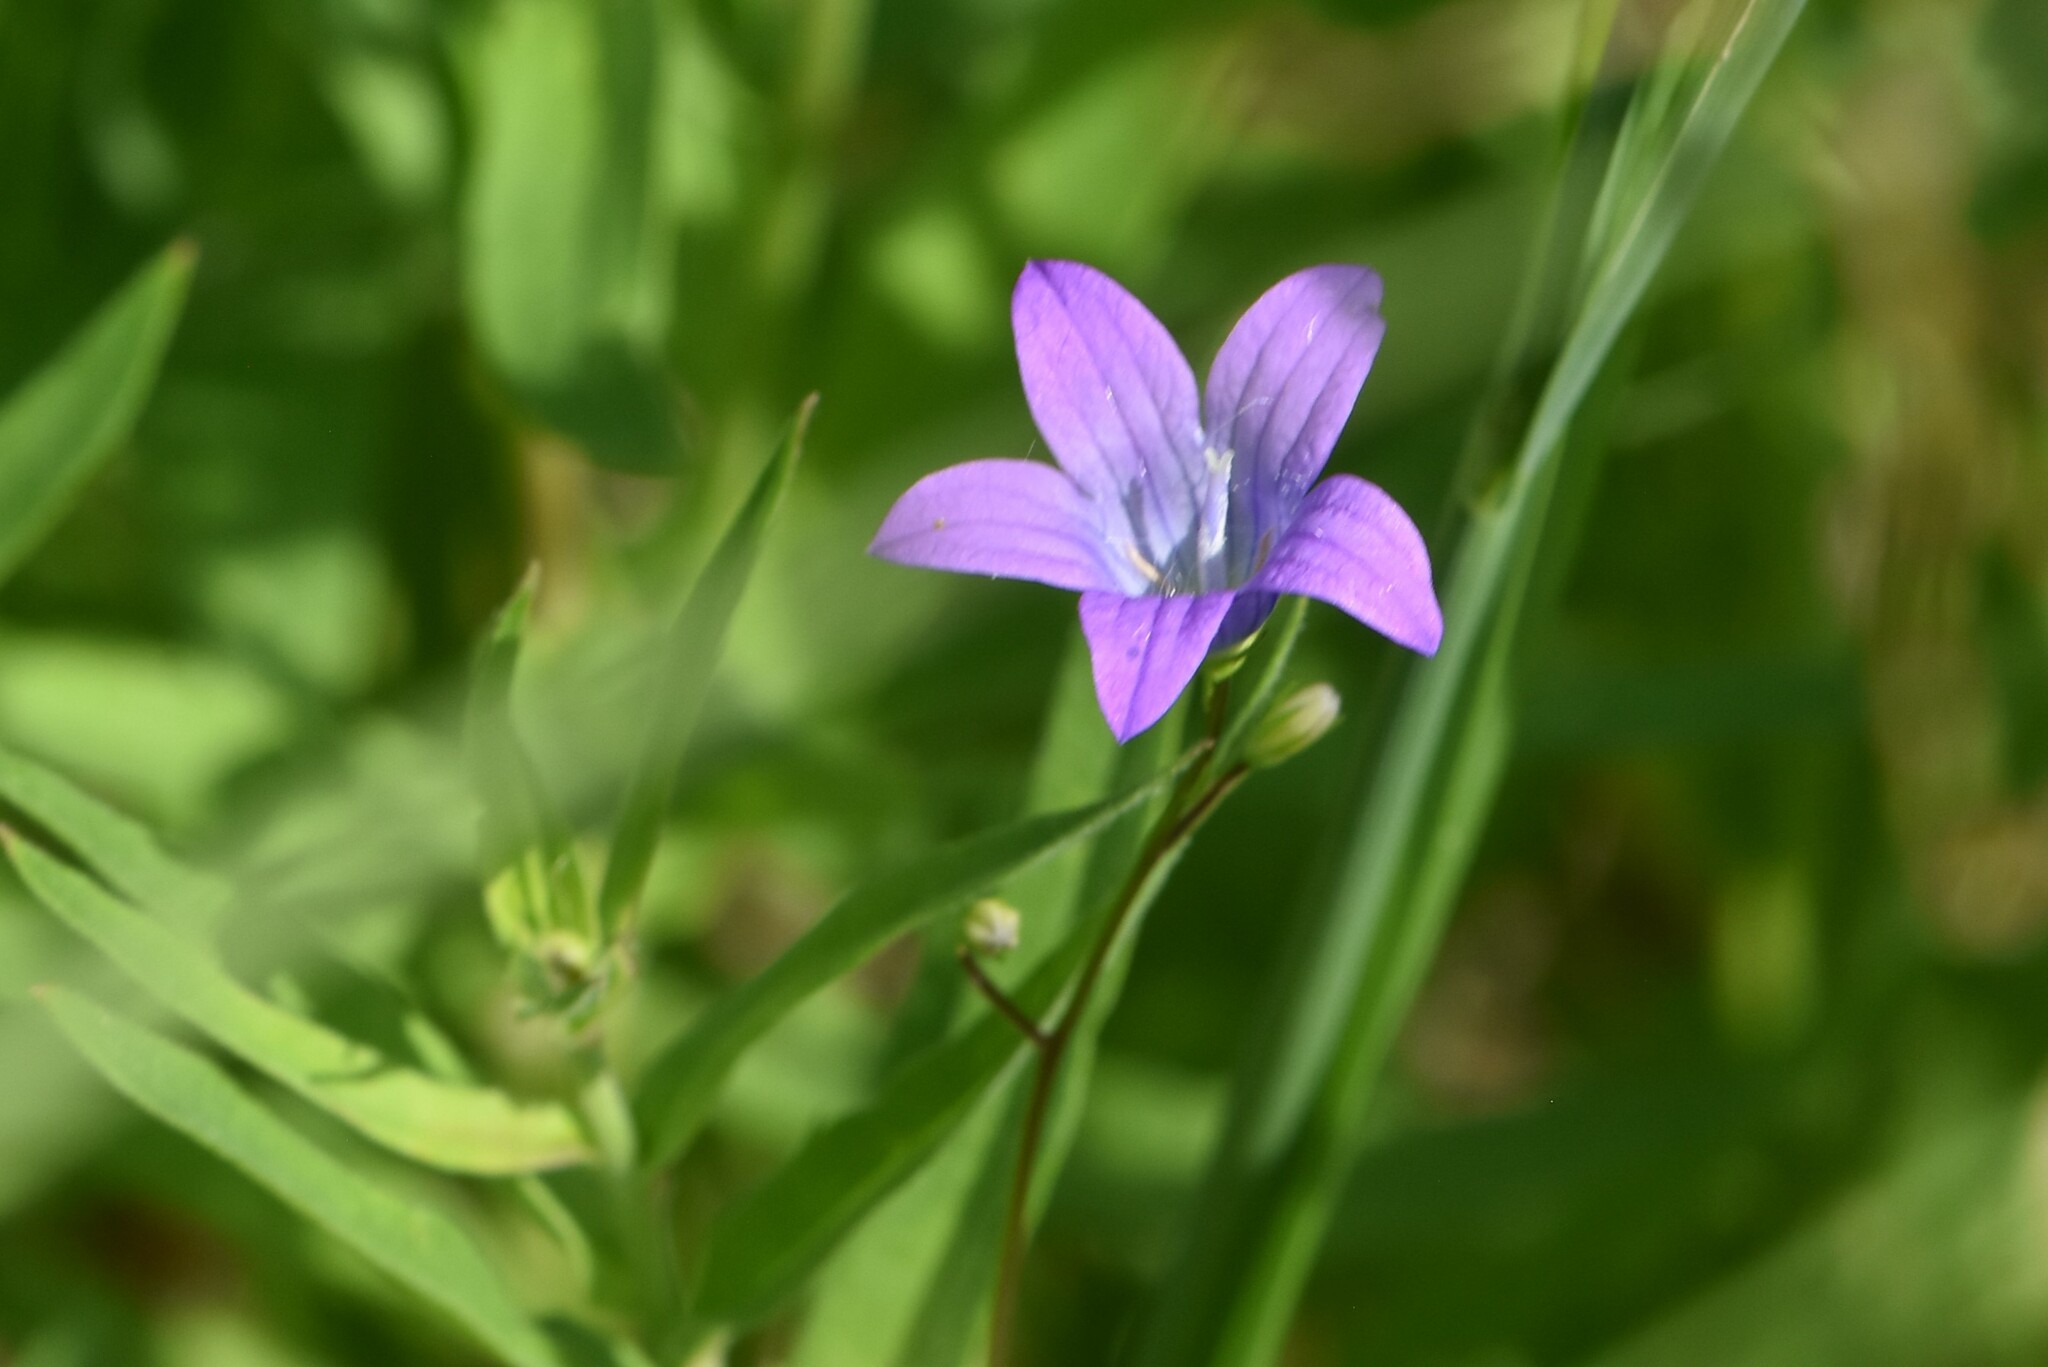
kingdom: Plantae
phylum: Tracheophyta
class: Magnoliopsida
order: Asterales
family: Campanulaceae
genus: Campanula
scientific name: Campanula patula
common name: Spreading bellflower
